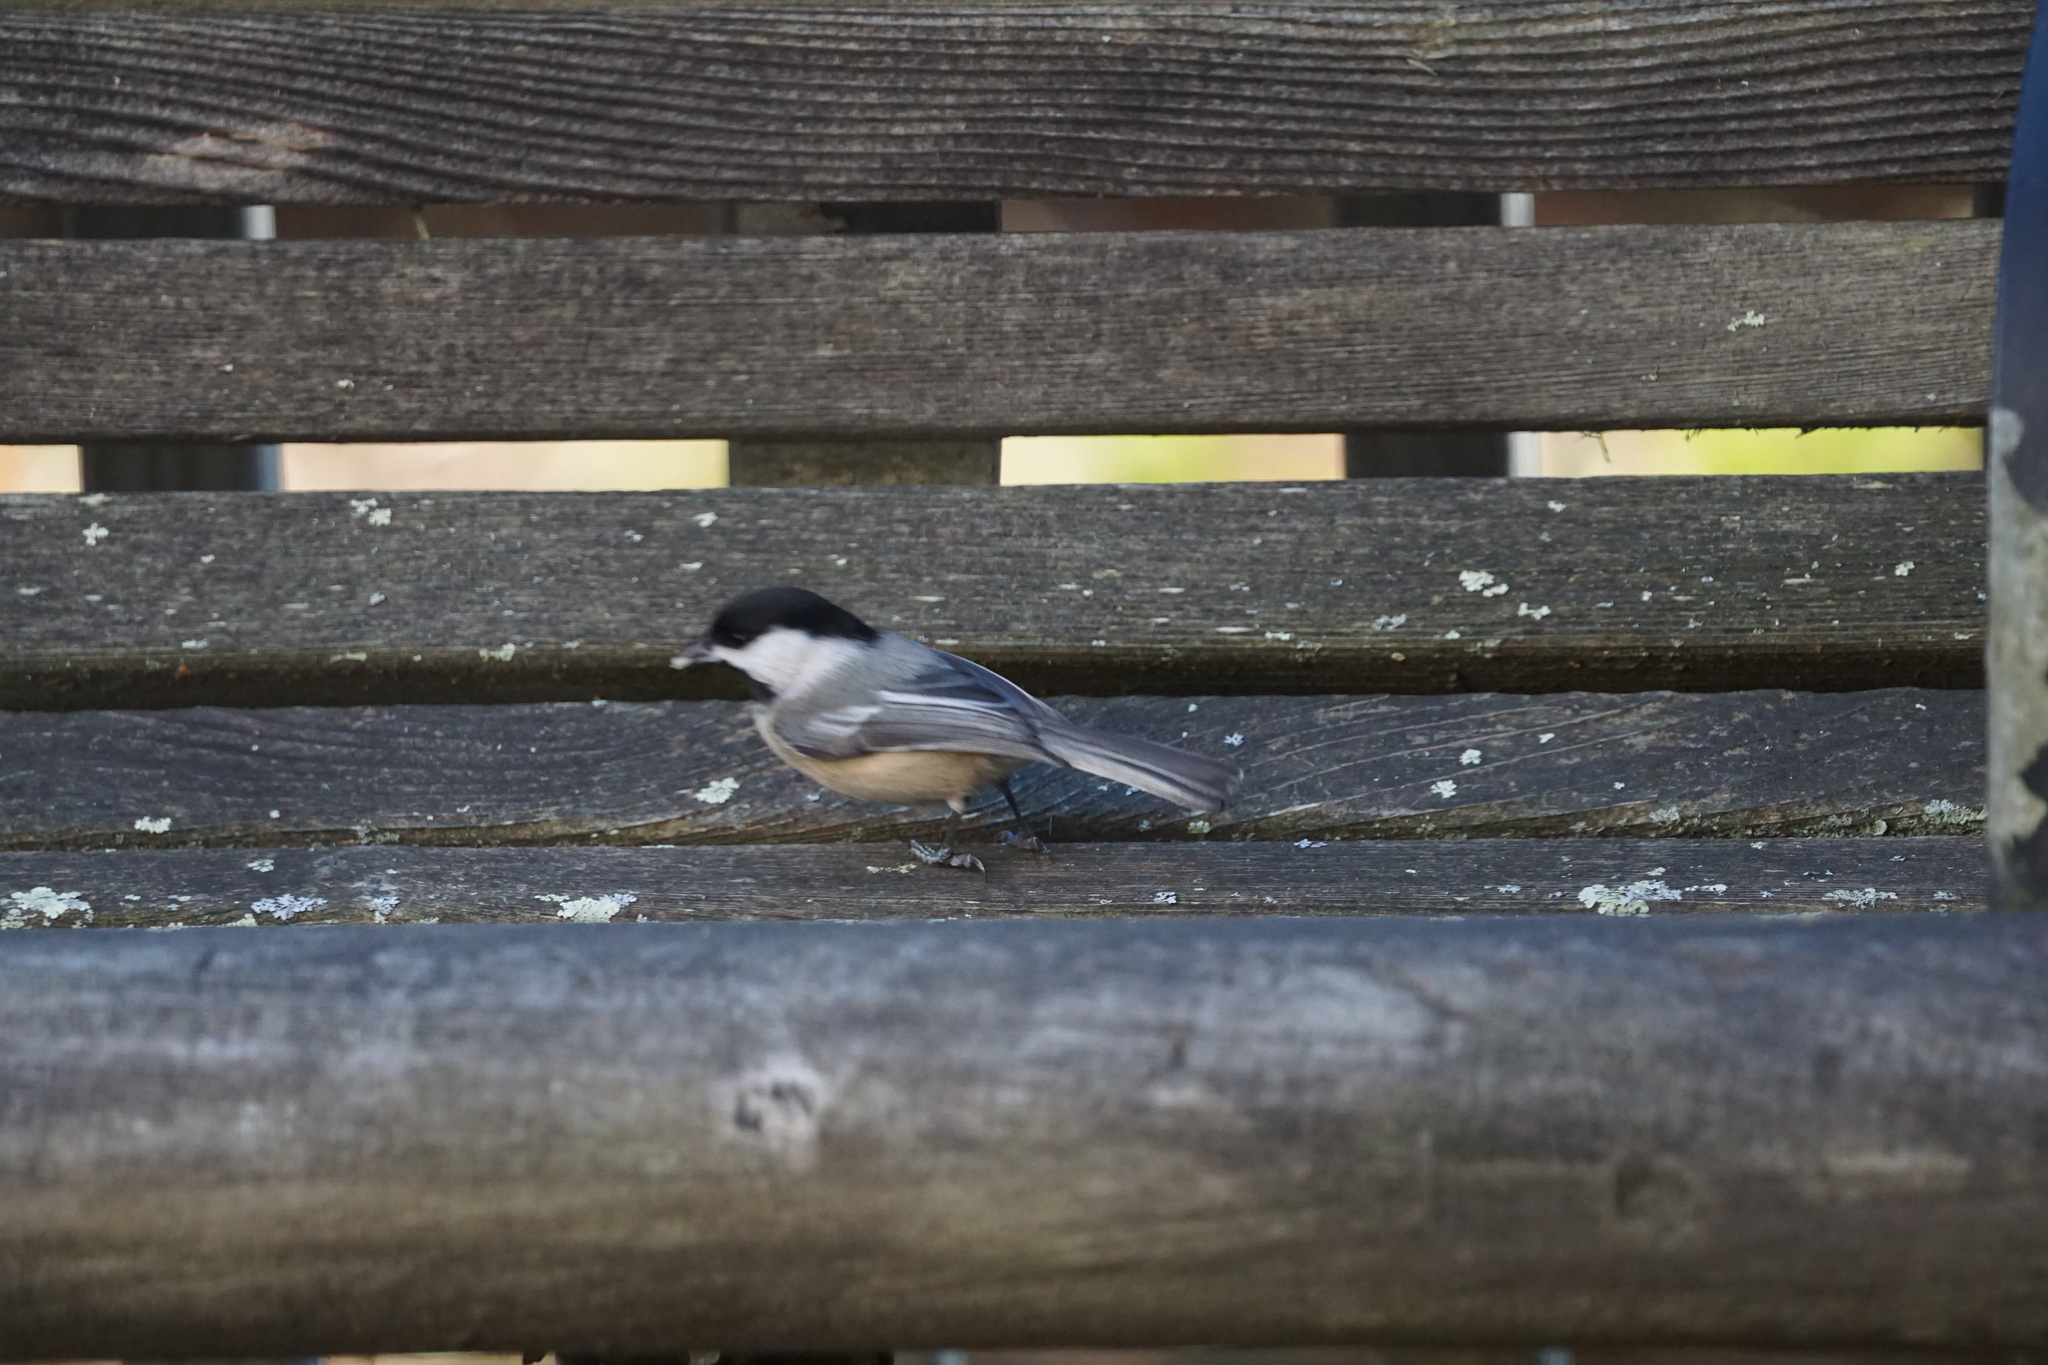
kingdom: Animalia
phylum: Chordata
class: Aves
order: Passeriformes
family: Paridae
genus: Poecile
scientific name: Poecile atricapillus
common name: Black-capped chickadee
